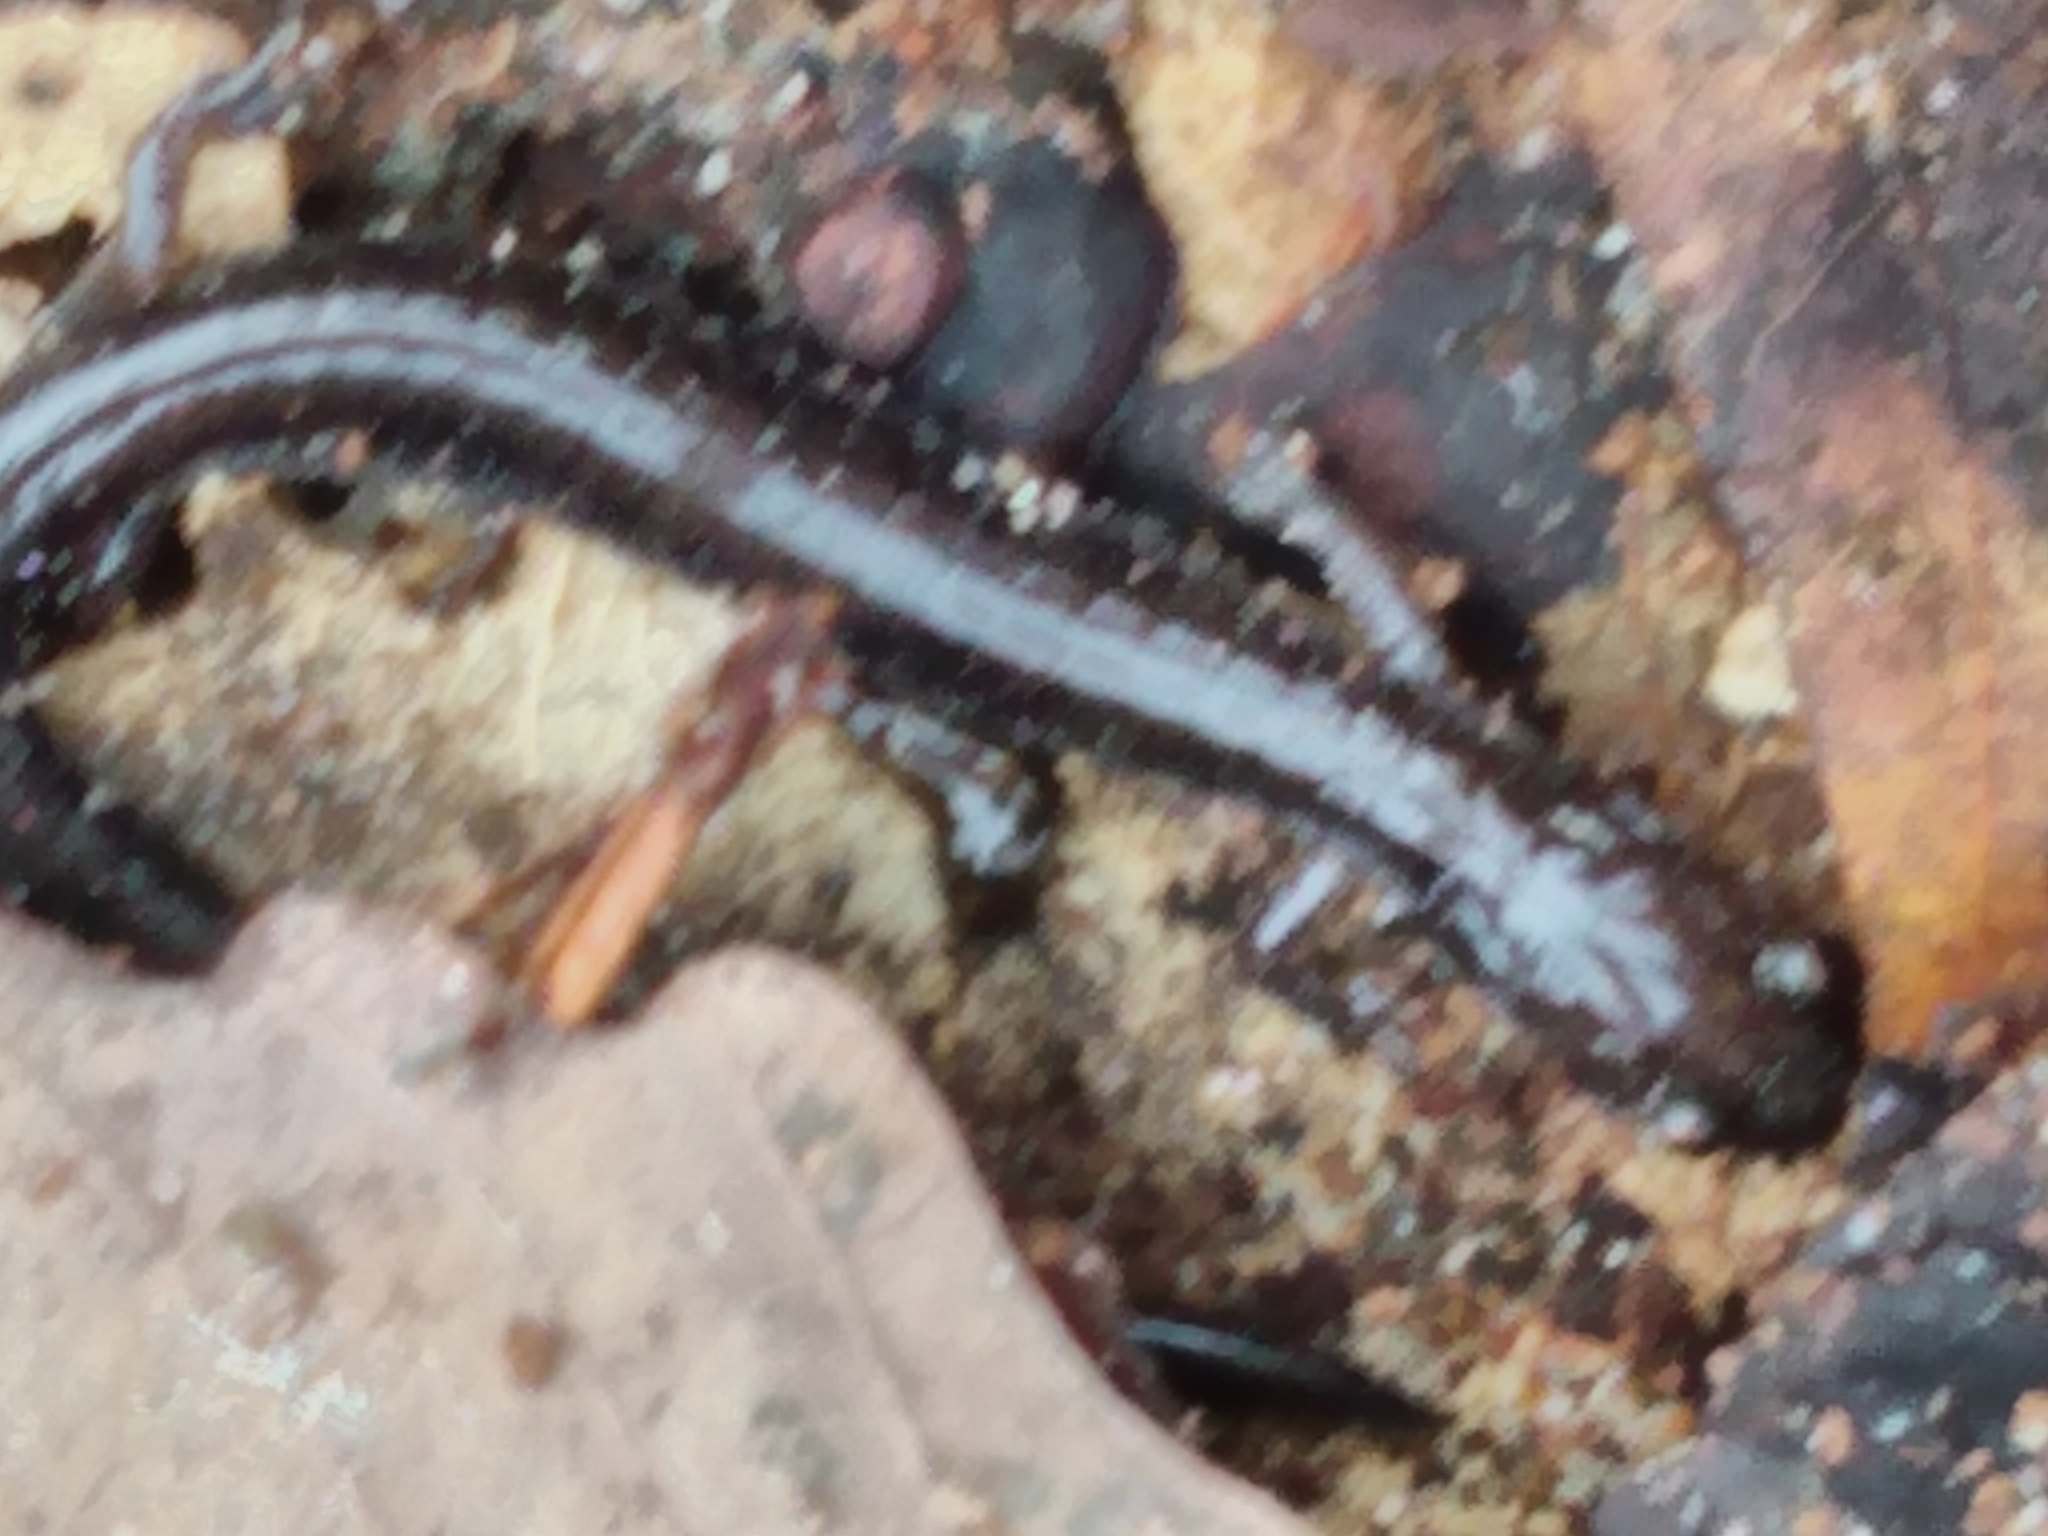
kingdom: Animalia
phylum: Chordata
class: Amphibia
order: Caudata
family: Plethodontidae
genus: Plethodon
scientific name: Plethodon cinereus
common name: Redback salamander
